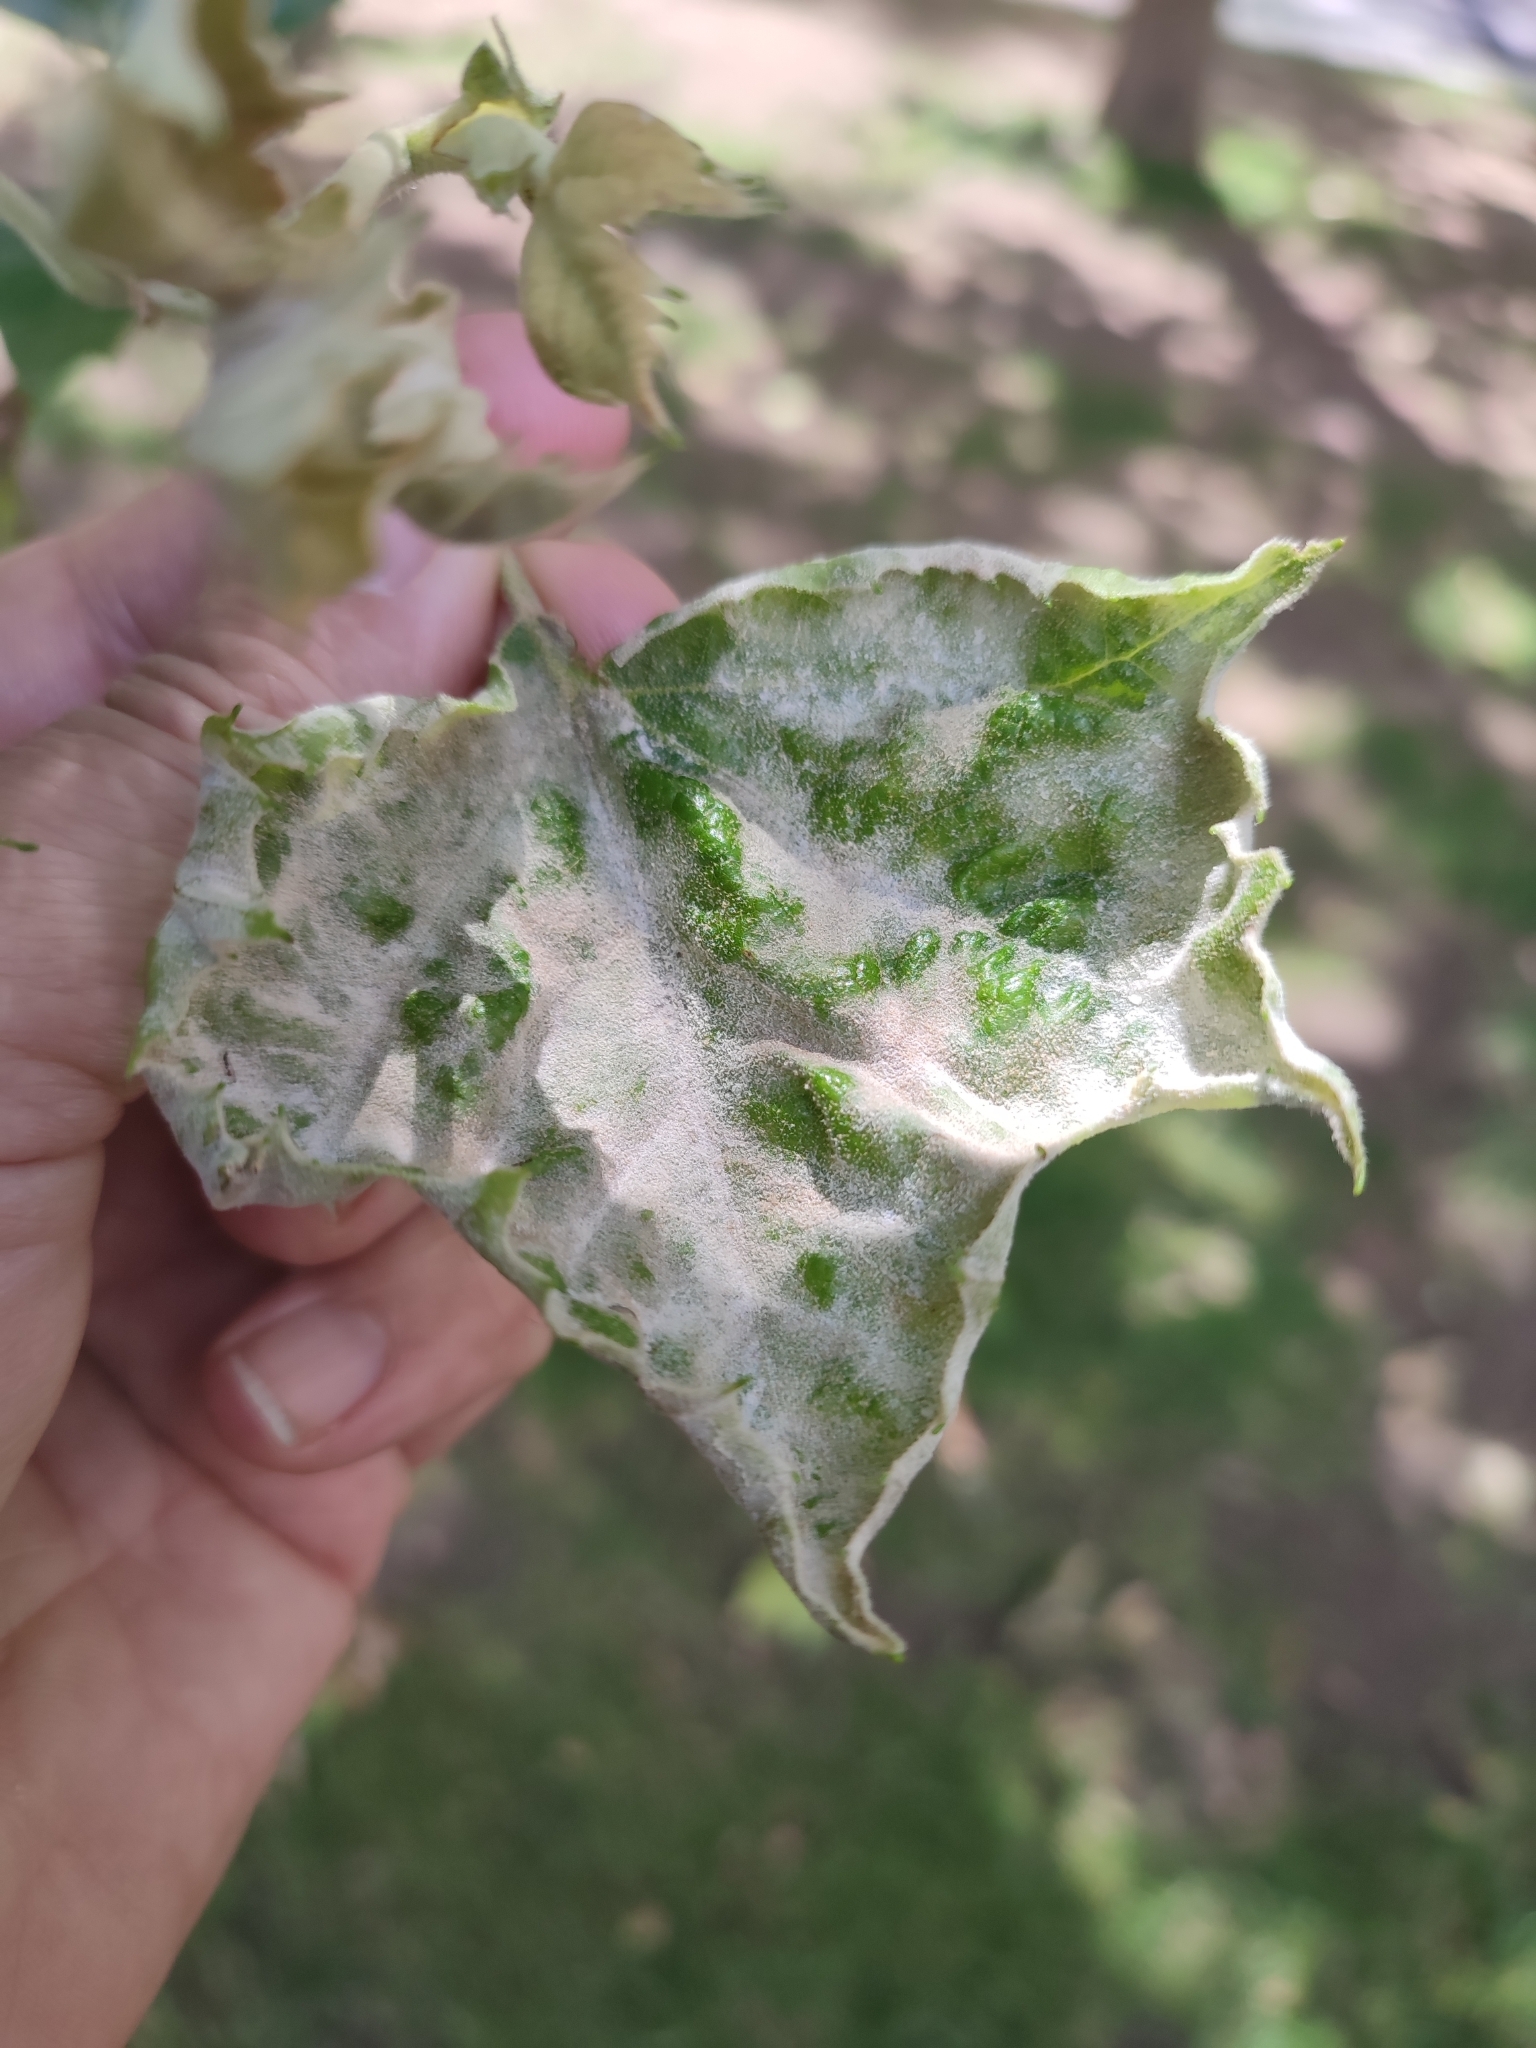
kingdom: Fungi
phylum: Ascomycota
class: Leotiomycetes
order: Helotiales
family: Erysiphaceae
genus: Erysiphe
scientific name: Erysiphe platani
